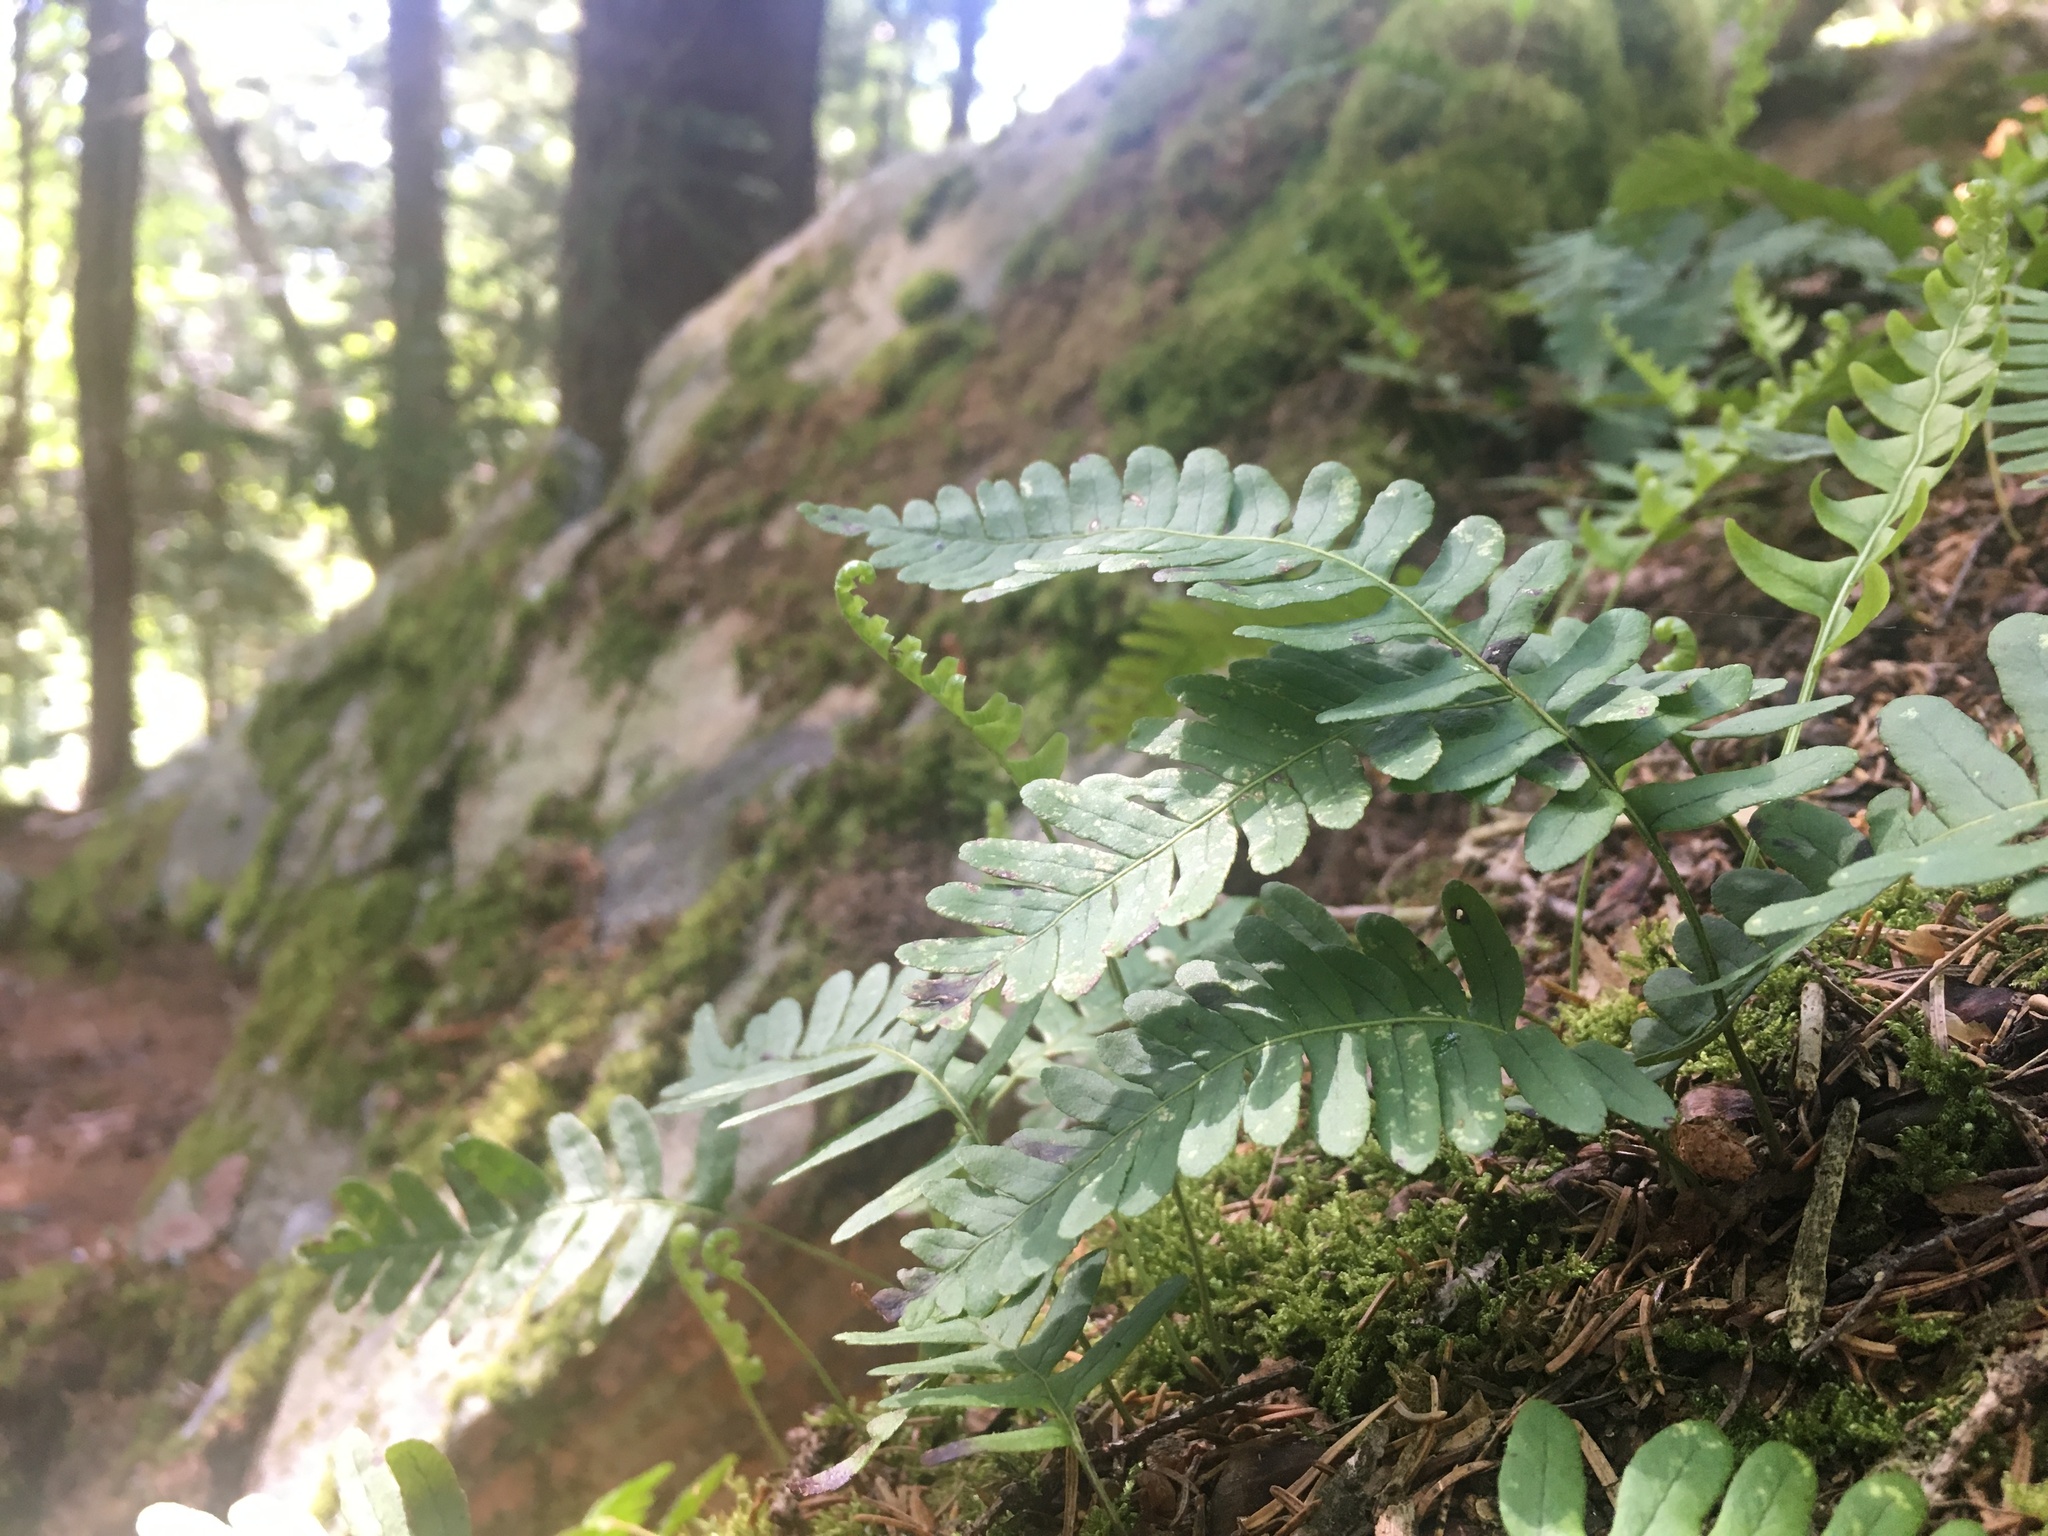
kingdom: Plantae
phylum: Tracheophyta
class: Polypodiopsida
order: Polypodiales
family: Polypodiaceae
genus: Polypodium
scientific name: Polypodium virginianum
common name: American wall fern
